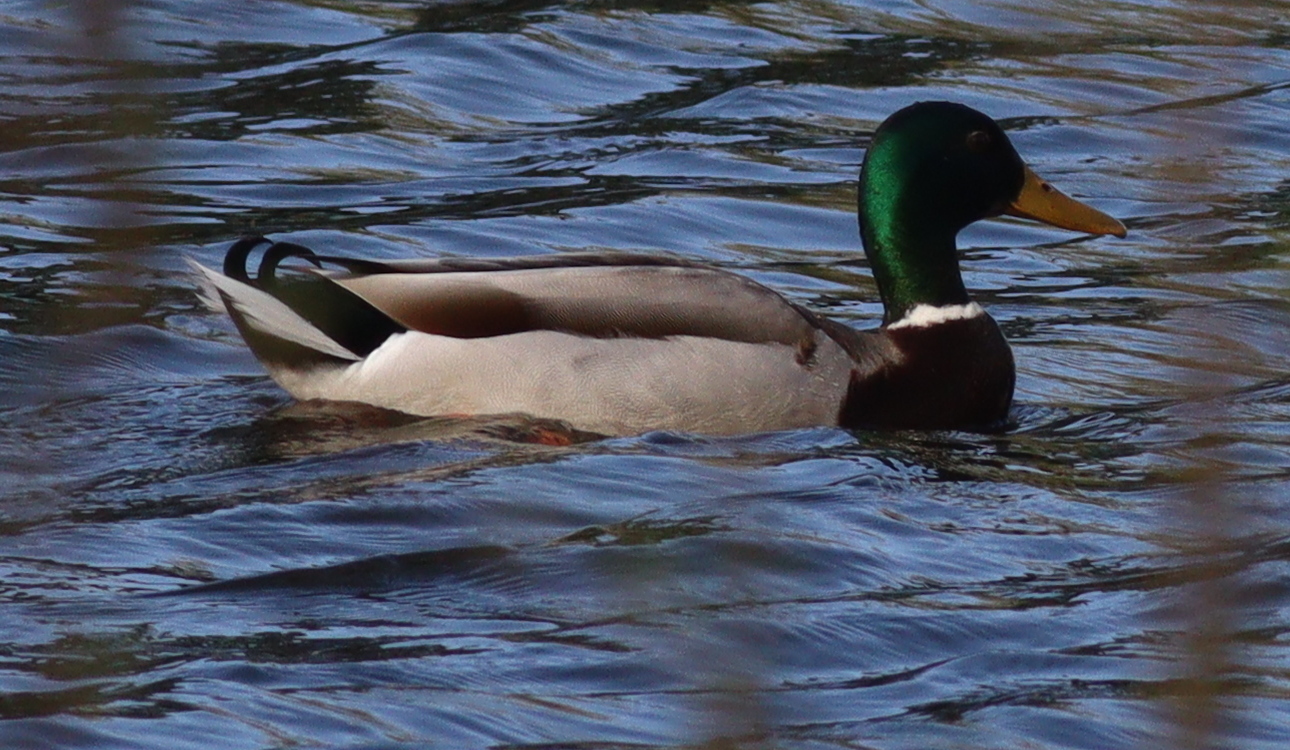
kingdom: Animalia
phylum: Chordata
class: Aves
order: Anseriformes
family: Anatidae
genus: Anas
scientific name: Anas platyrhynchos
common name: Mallard
